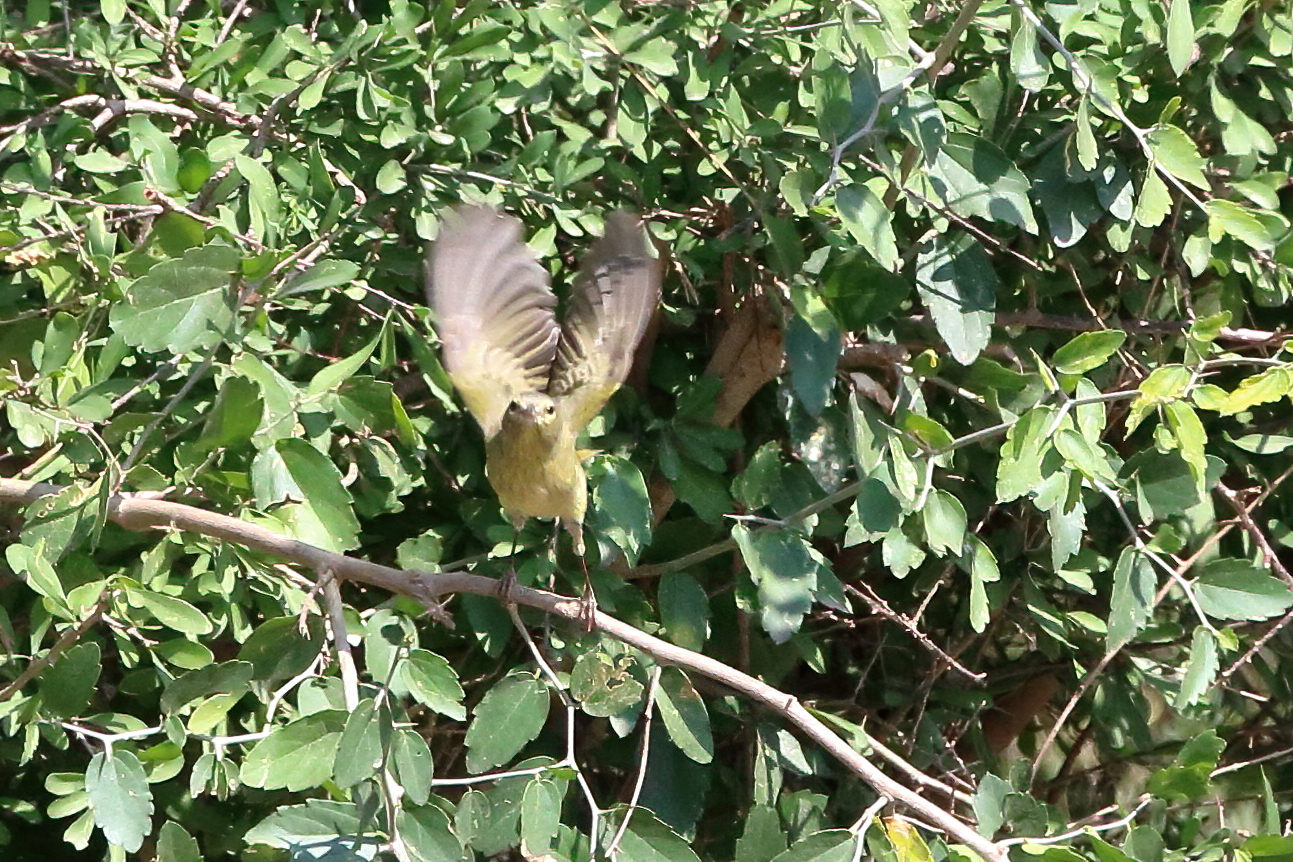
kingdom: Animalia
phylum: Chordata
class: Aves
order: Passeriformes
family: Parulidae
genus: Leiothlypis
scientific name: Leiothlypis celata
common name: Orange-crowned warbler
